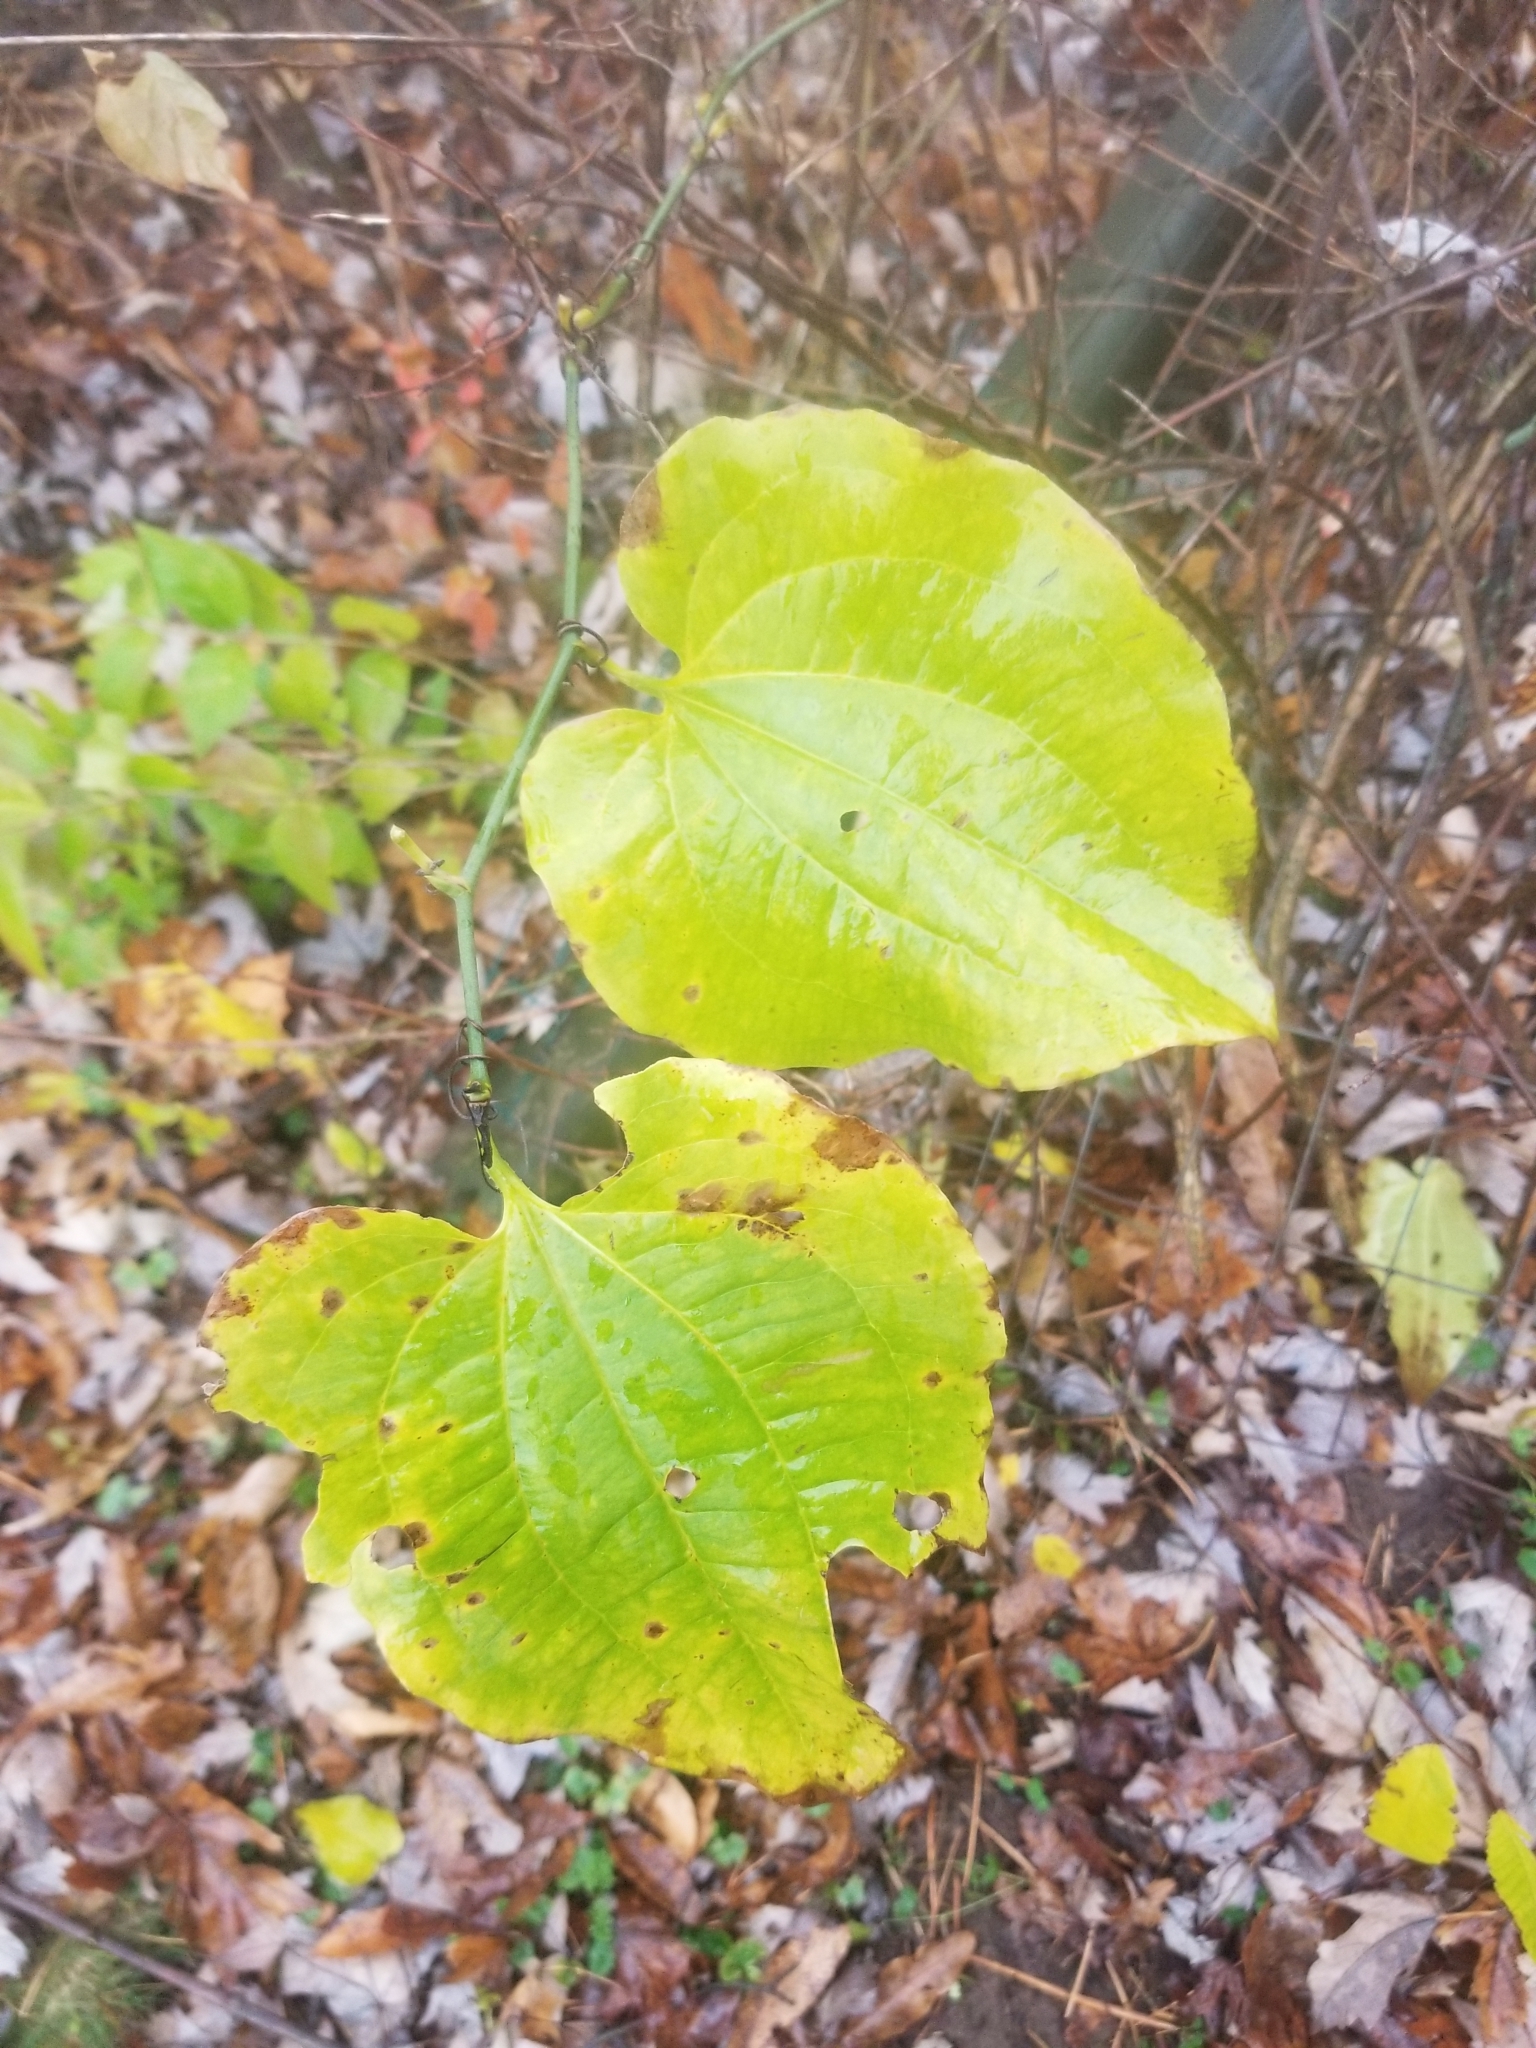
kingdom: Plantae
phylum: Tracheophyta
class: Liliopsida
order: Liliales
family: Smilacaceae
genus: Smilax
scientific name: Smilax tamnoides
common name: Hellfetter
